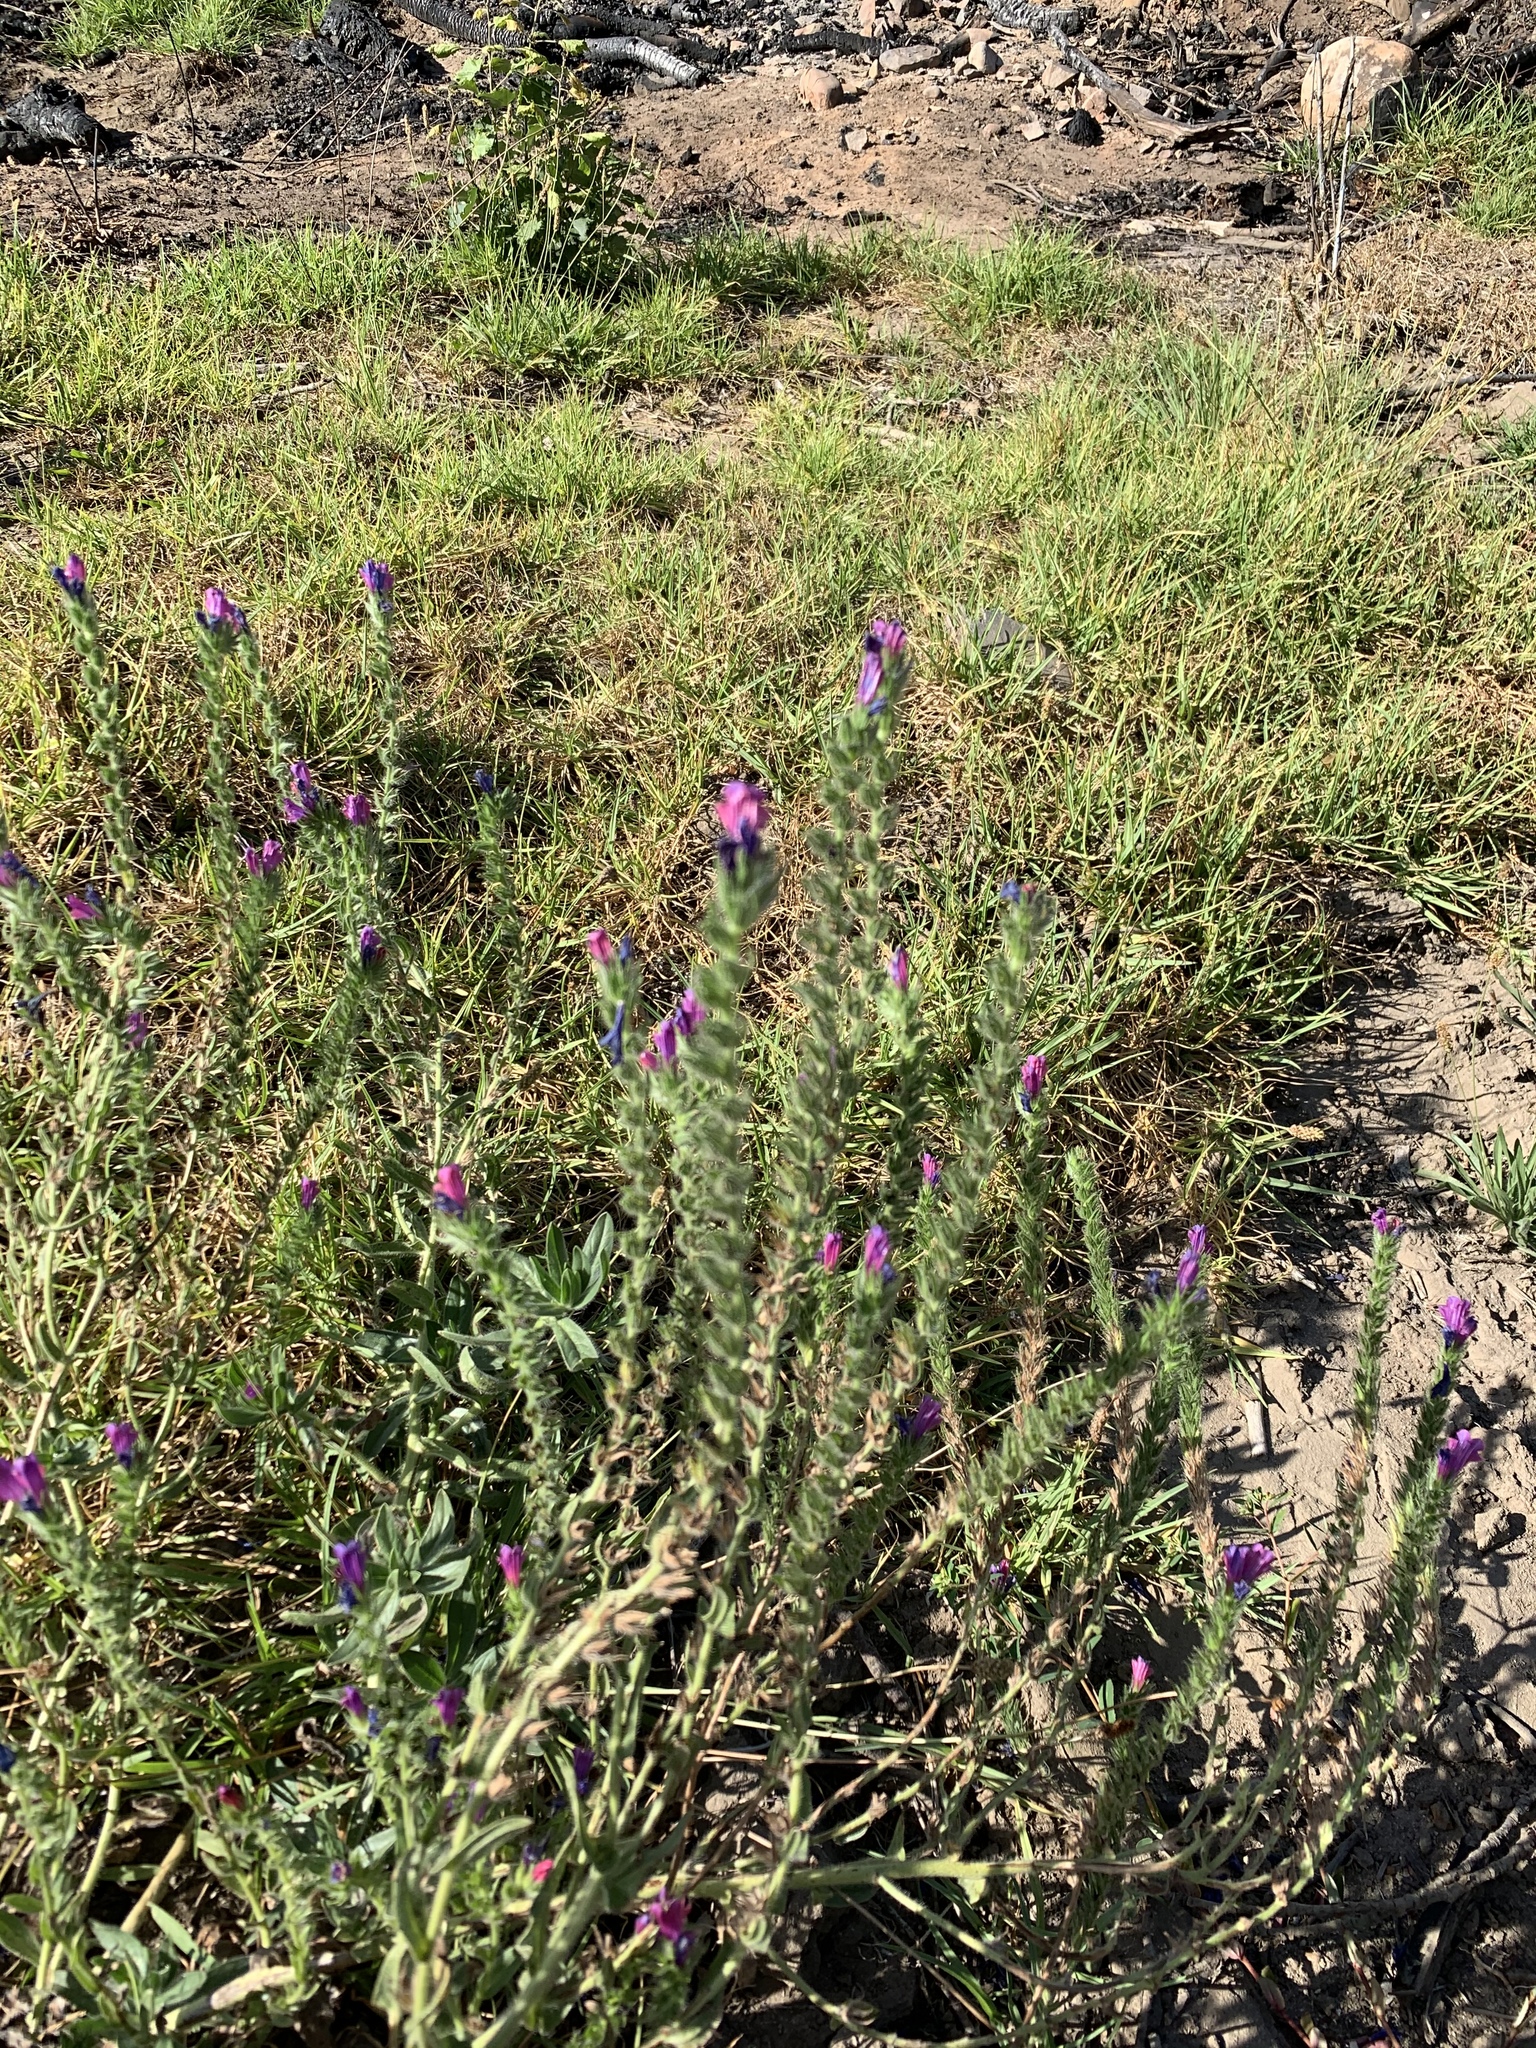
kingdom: Plantae
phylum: Tracheophyta
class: Magnoliopsida
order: Boraginales
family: Boraginaceae
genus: Echium
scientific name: Echium plantagineum
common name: Purple viper's-bugloss
